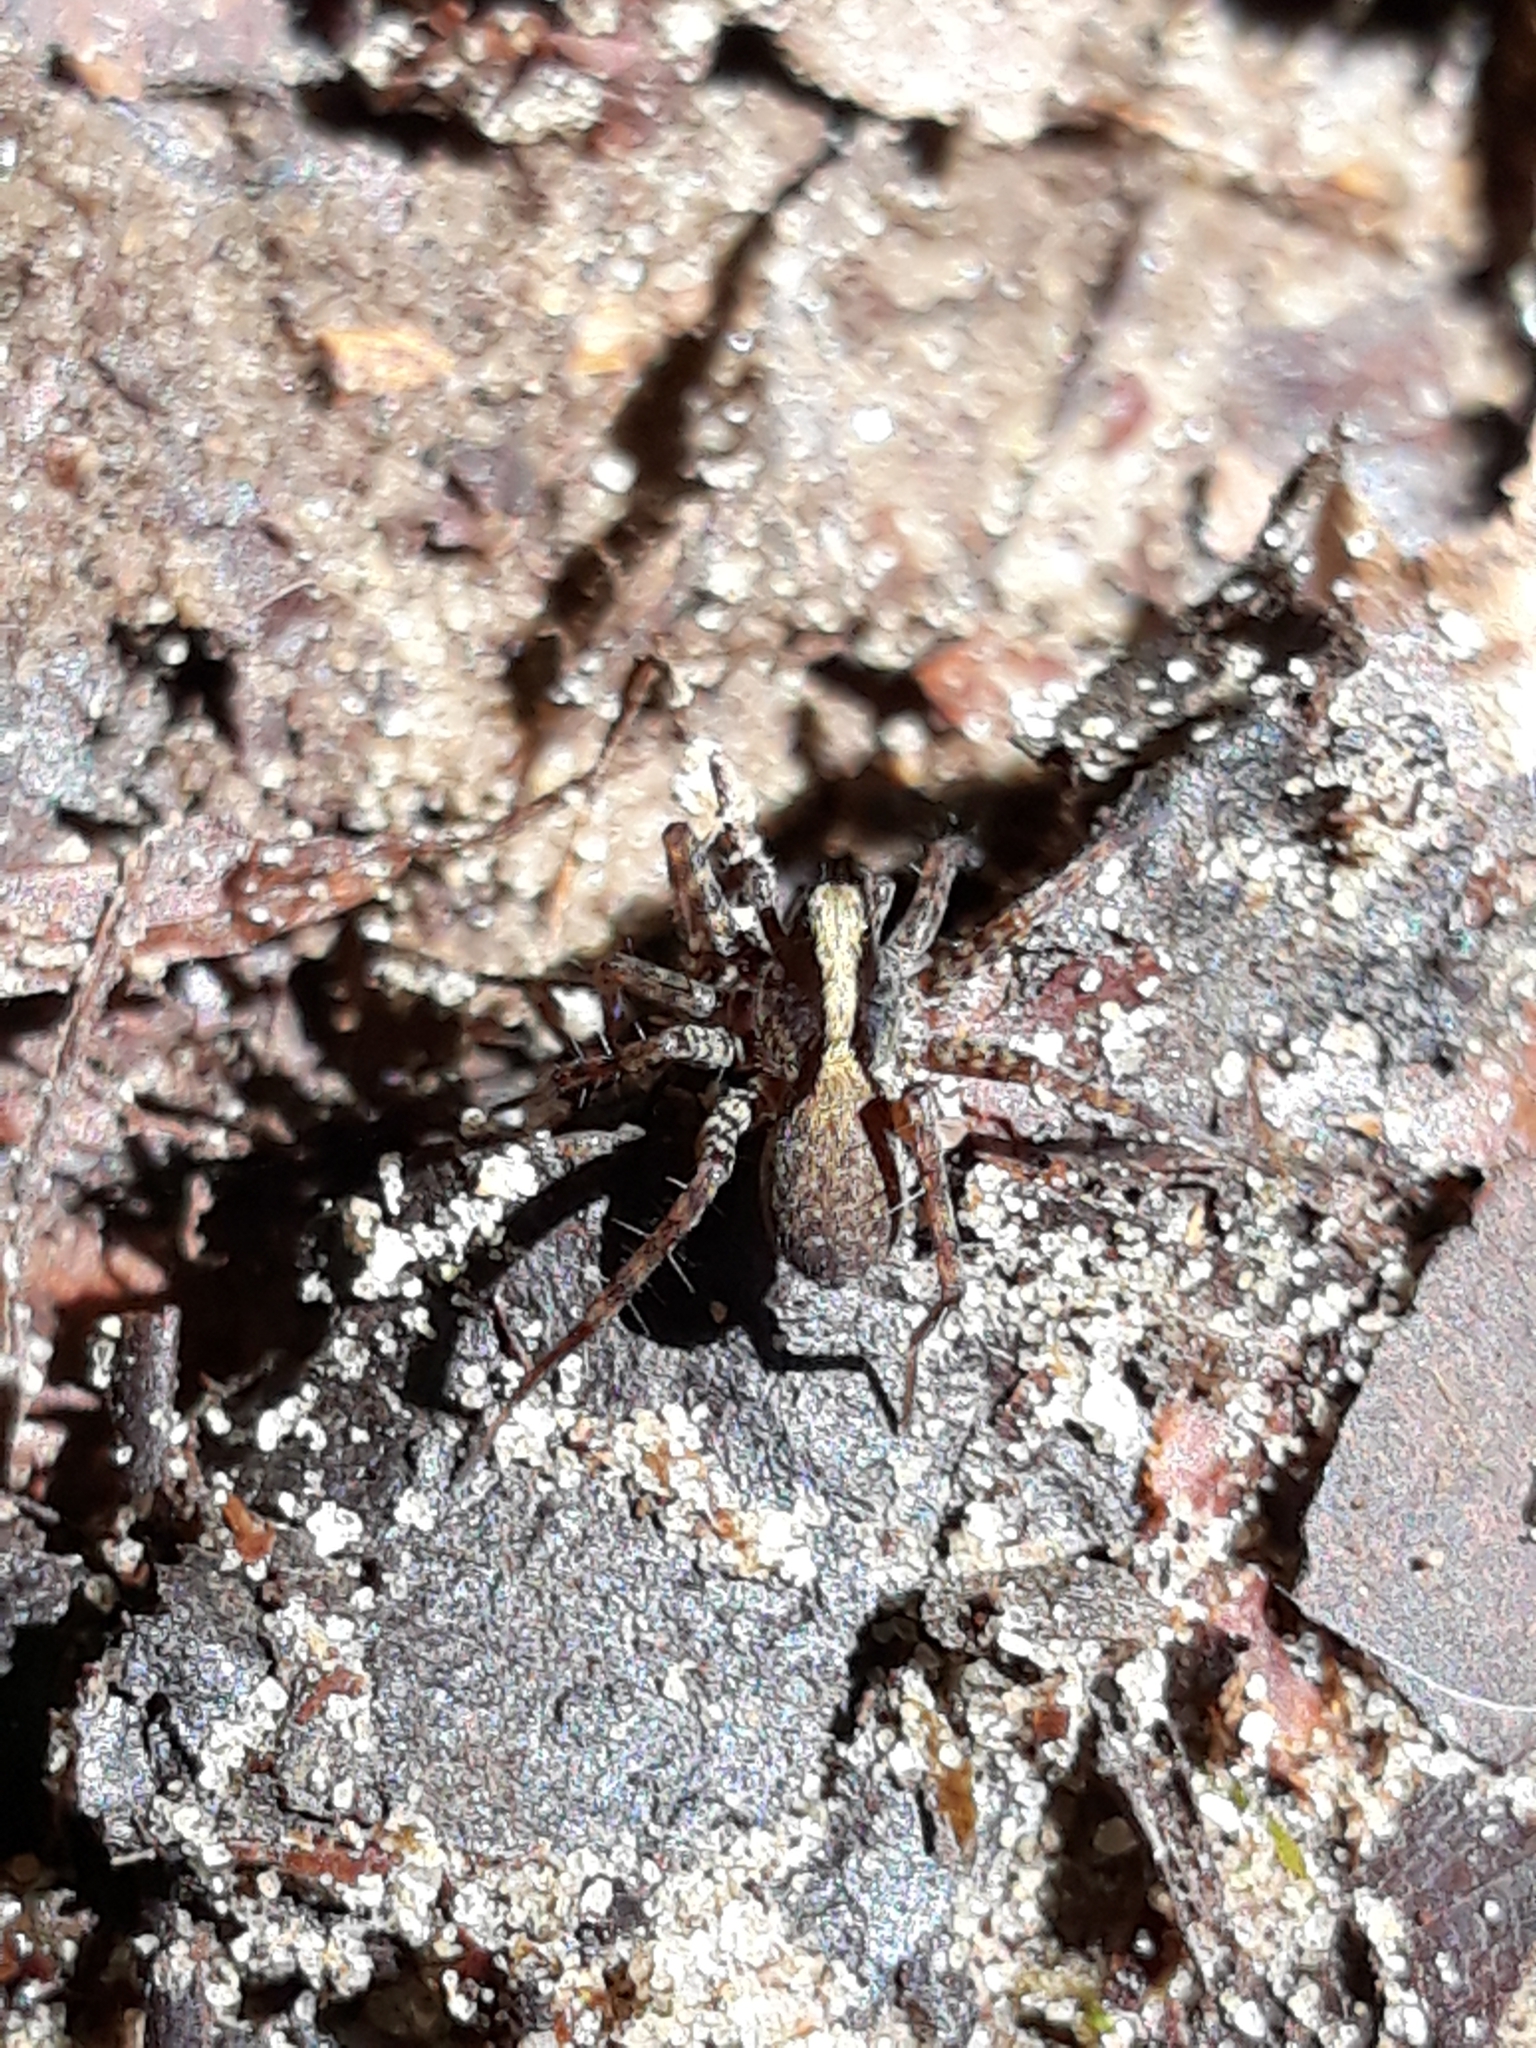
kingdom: Animalia
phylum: Arthropoda
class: Arachnida
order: Araneae
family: Lycosidae
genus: Pardosa
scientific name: Pardosa
